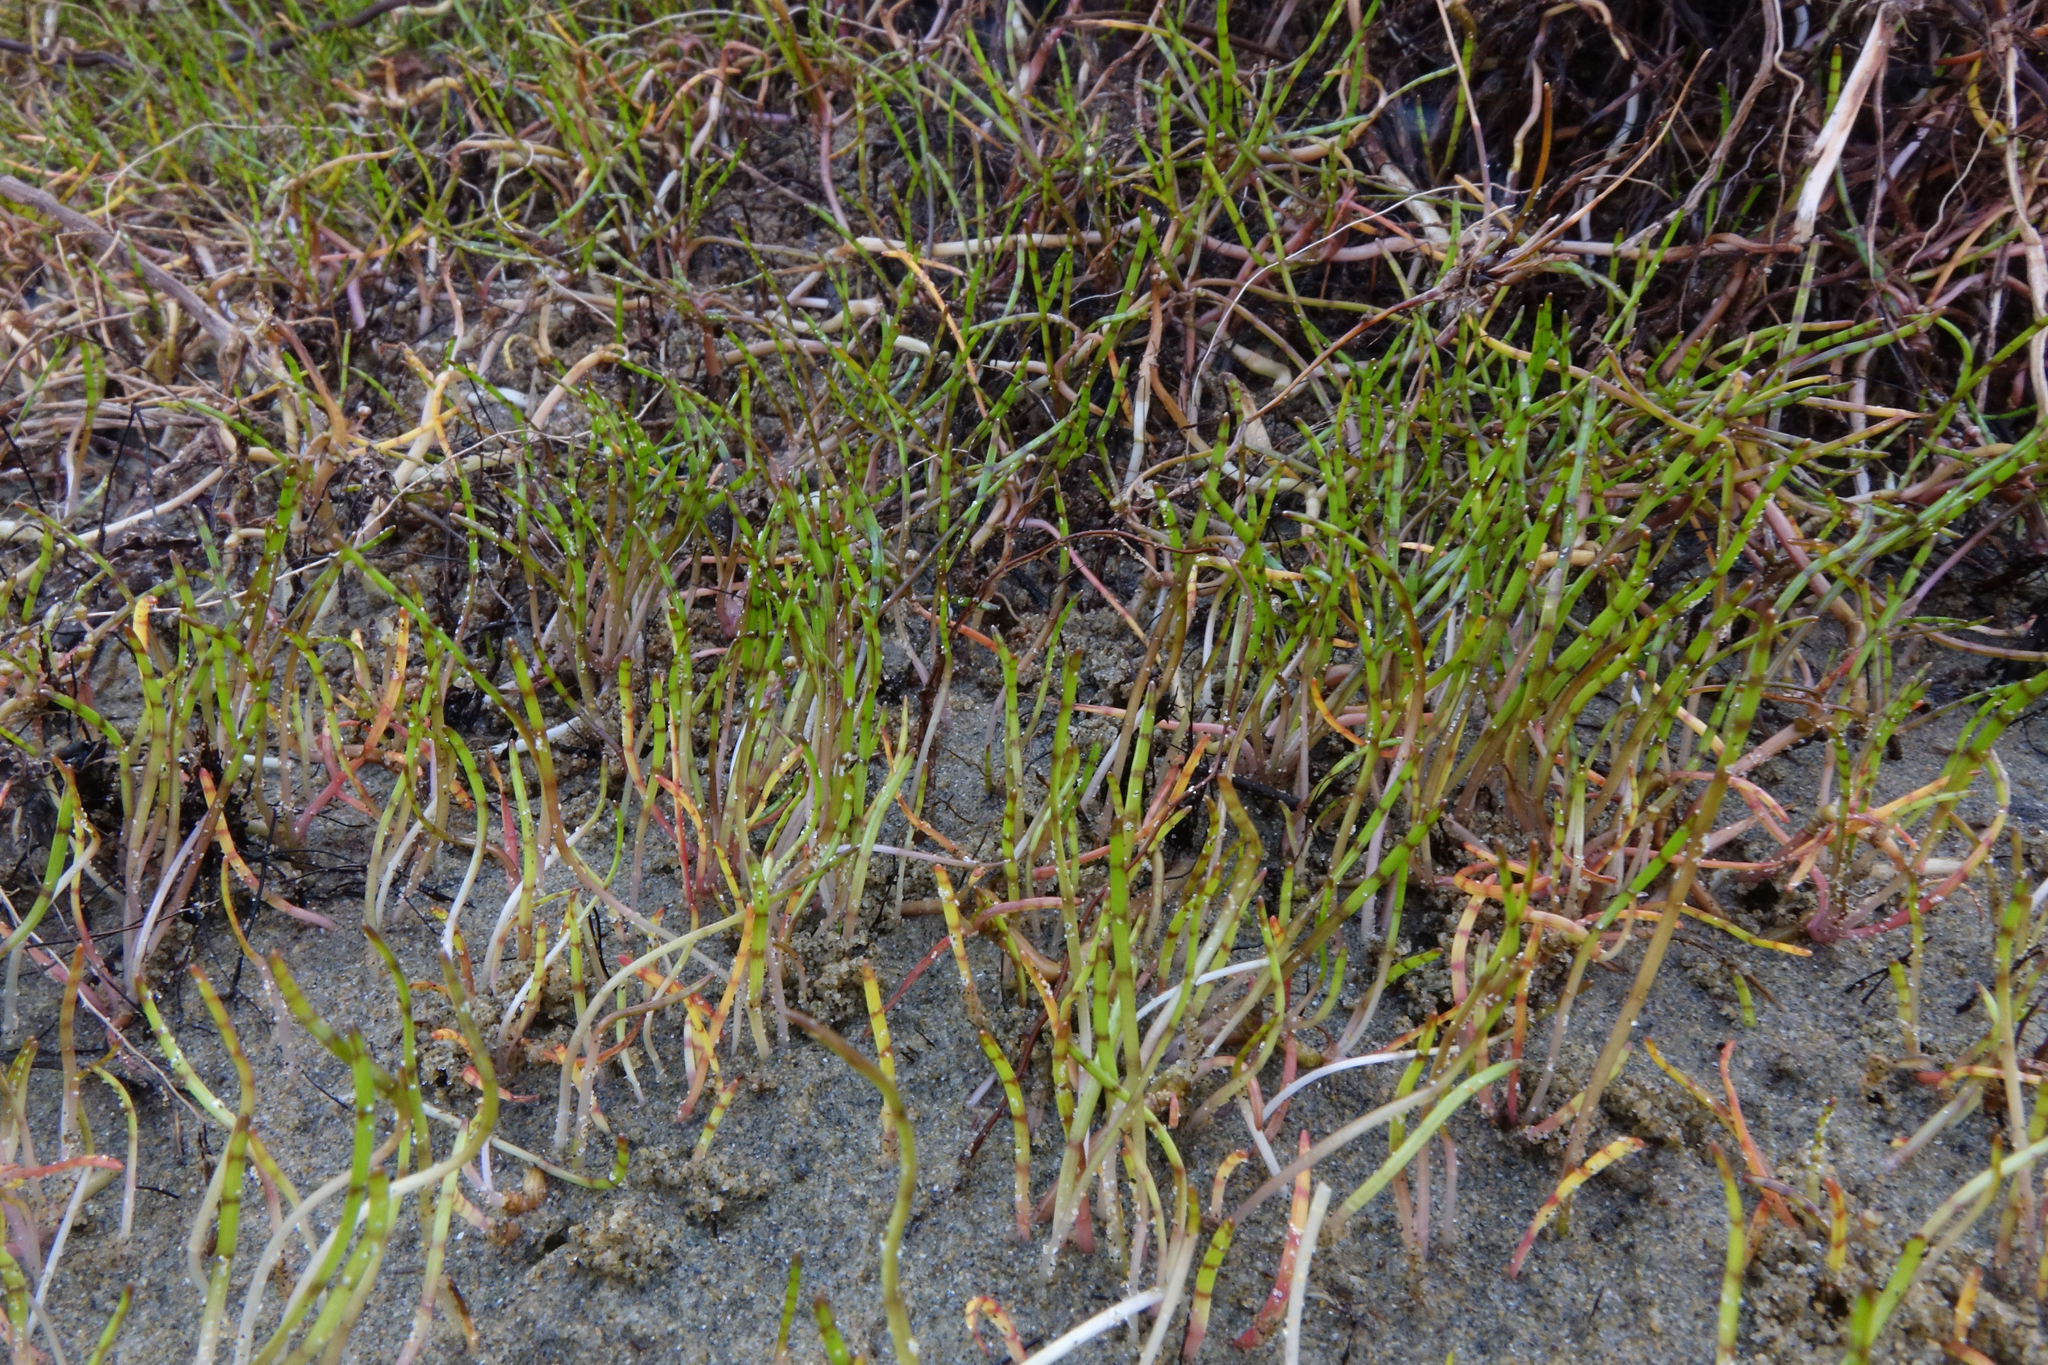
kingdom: Plantae
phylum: Tracheophyta
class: Magnoliopsida
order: Apiales
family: Apiaceae
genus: Lilaeopsis
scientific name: Lilaeopsis novae-zelandiae
